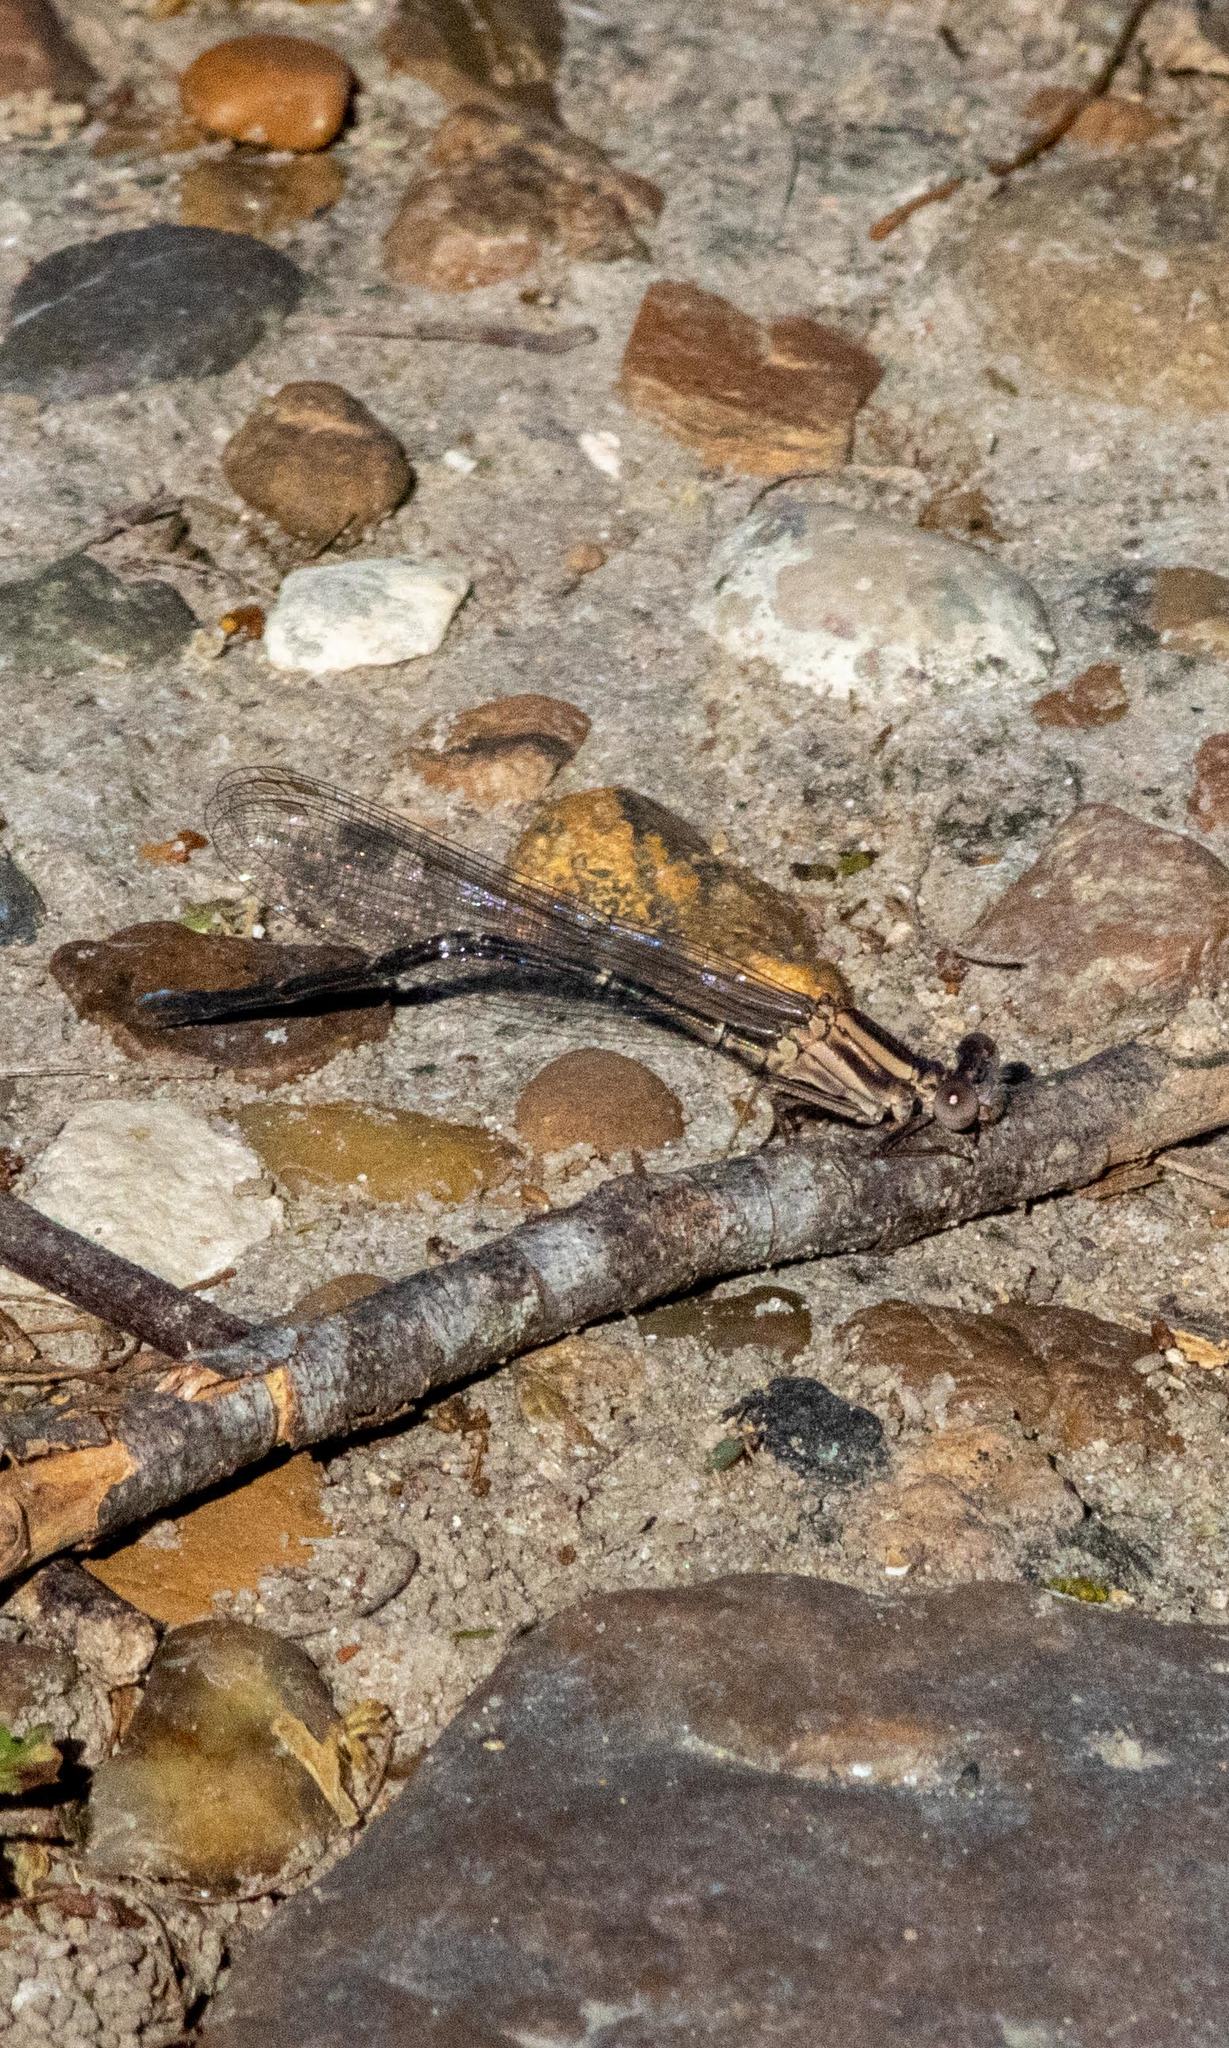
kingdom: Animalia
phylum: Arthropoda
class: Insecta
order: Odonata
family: Coenagrionidae
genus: Argia
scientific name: Argia moesta
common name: Powdered dancer
